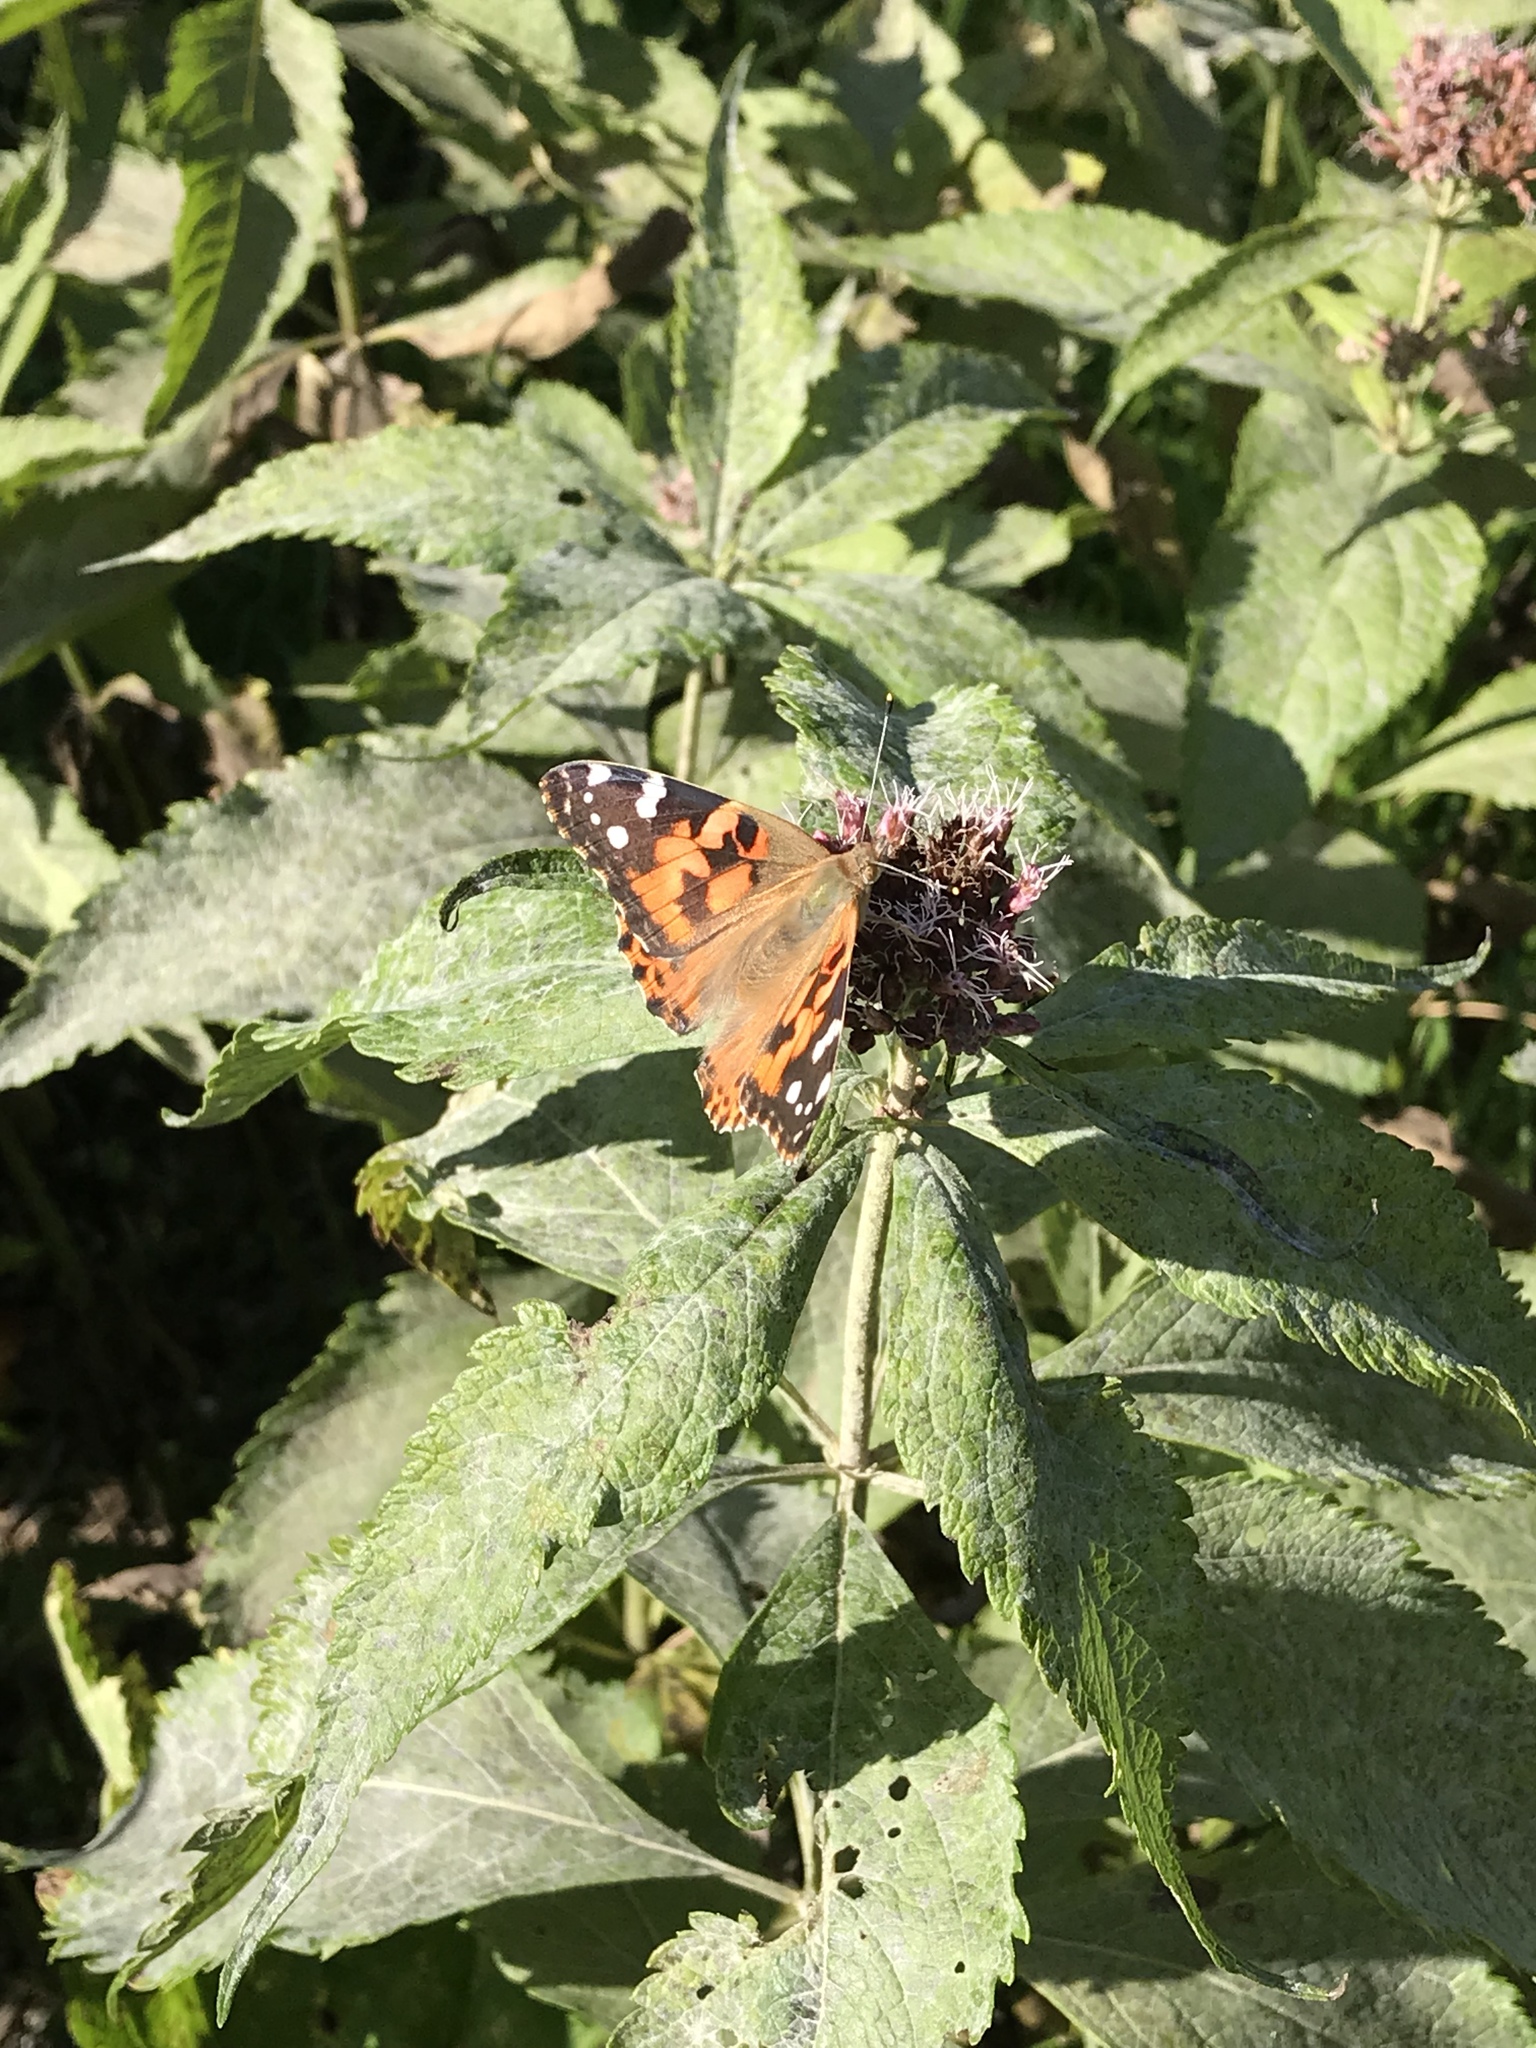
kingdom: Animalia
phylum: Arthropoda
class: Insecta
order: Lepidoptera
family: Nymphalidae
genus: Vanessa
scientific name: Vanessa cardui
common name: Painted lady
